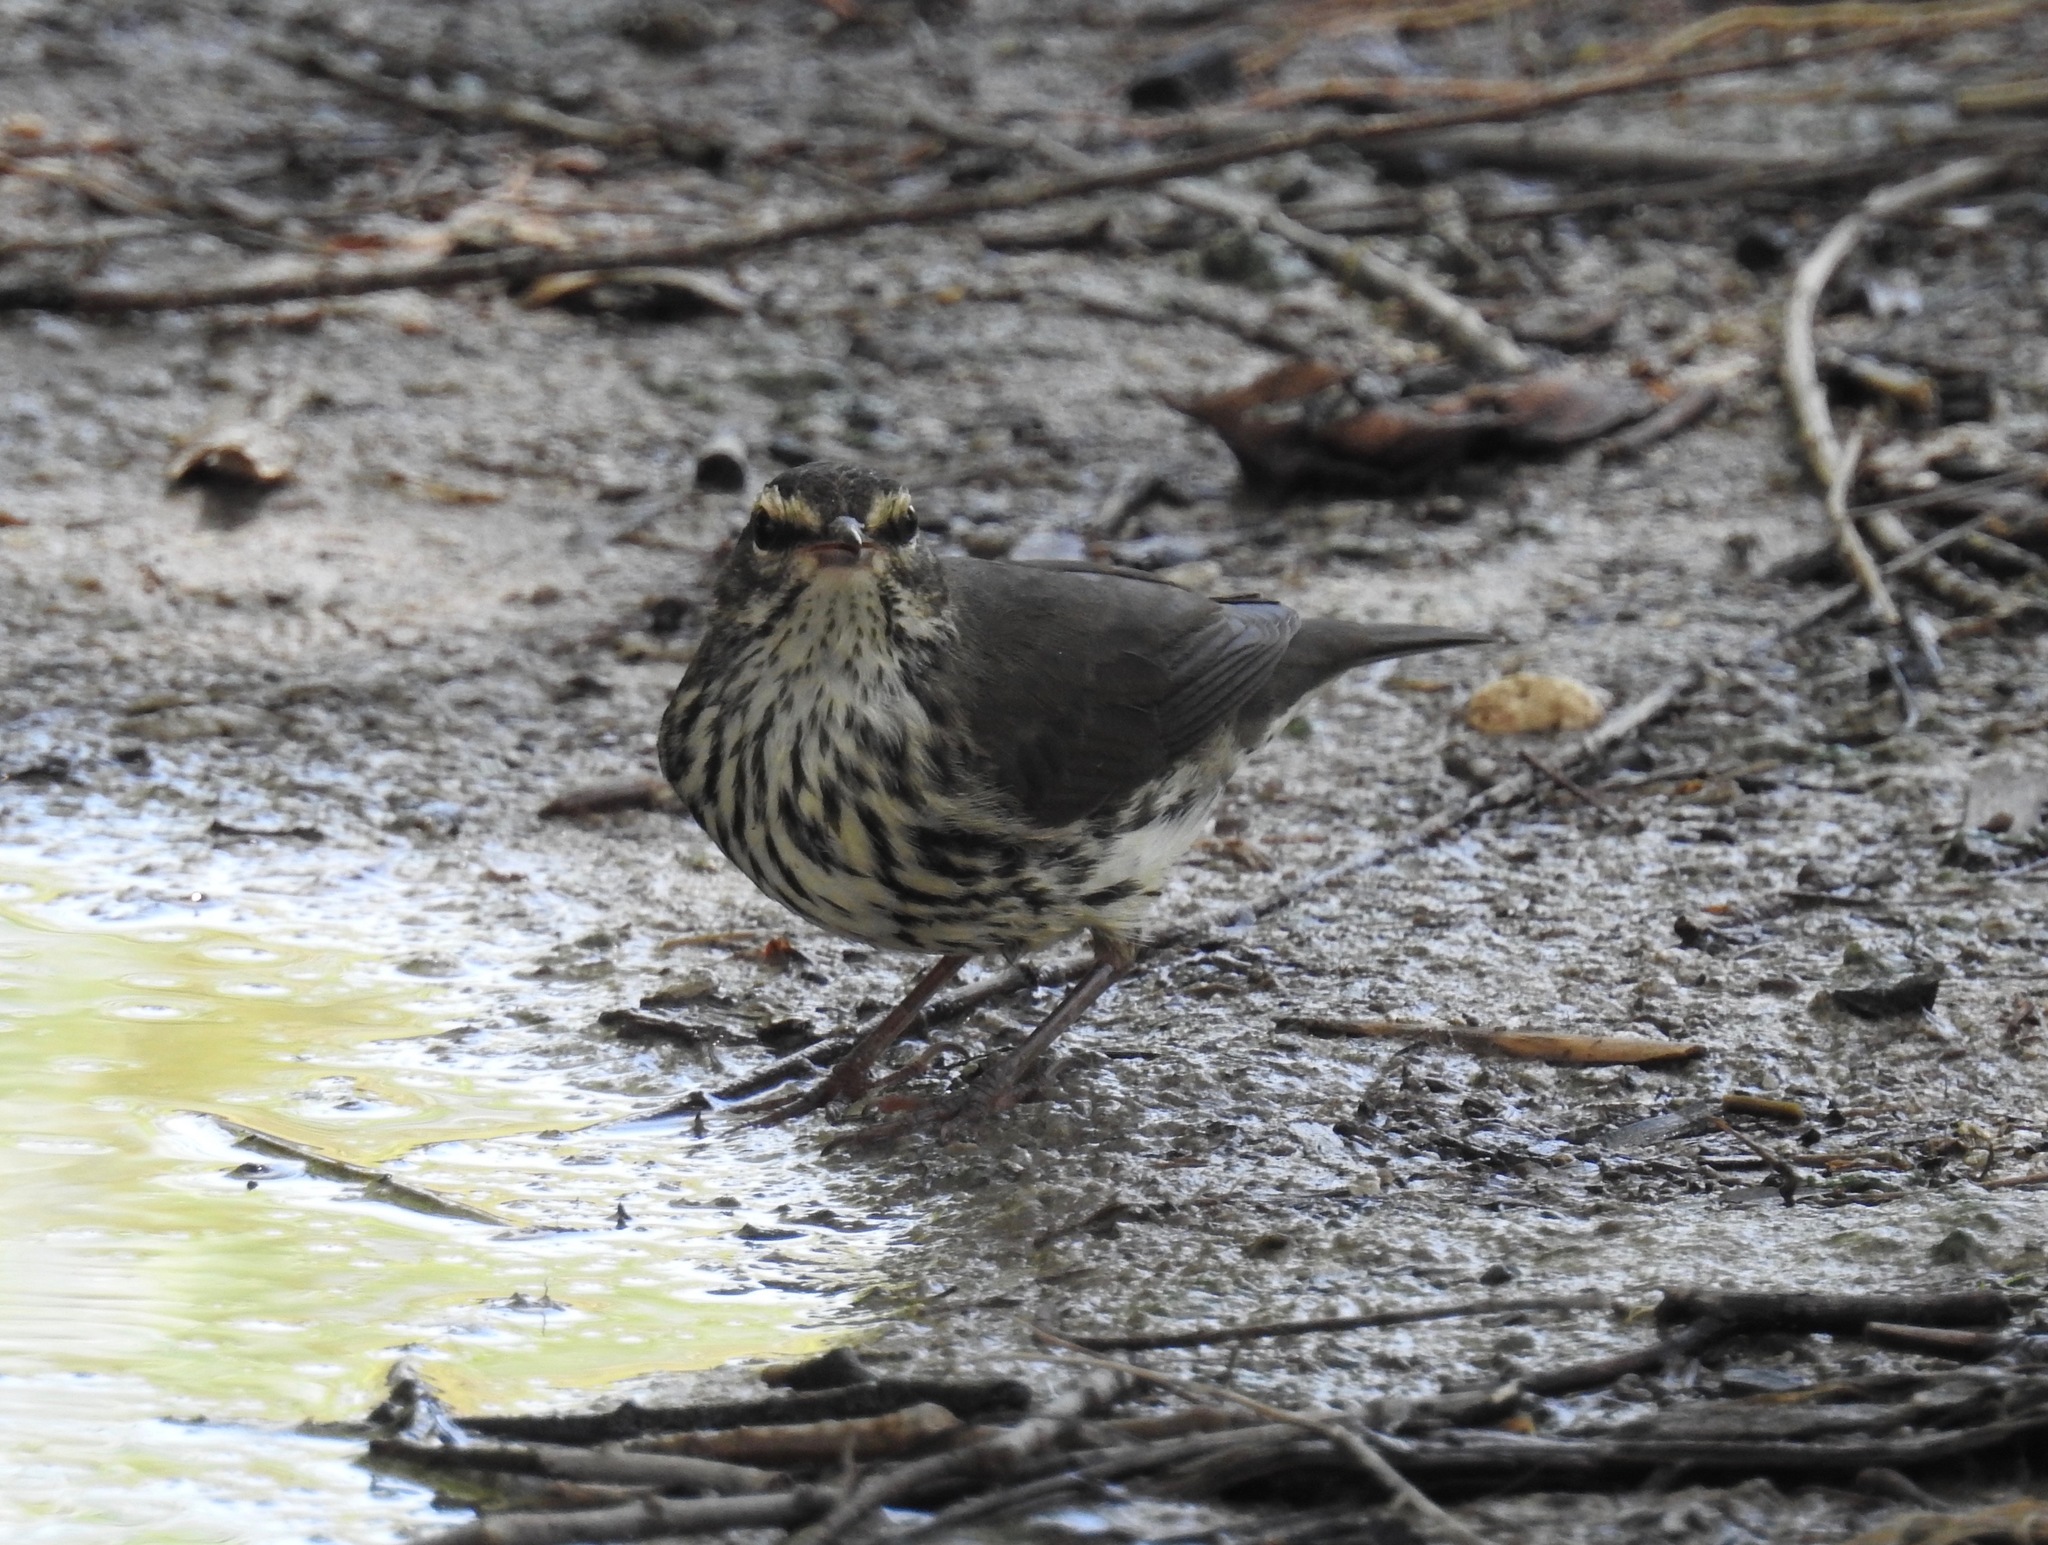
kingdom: Animalia
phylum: Chordata
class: Aves
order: Passeriformes
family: Parulidae
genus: Parkesia
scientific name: Parkesia noveboracensis
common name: Northern waterthrush
